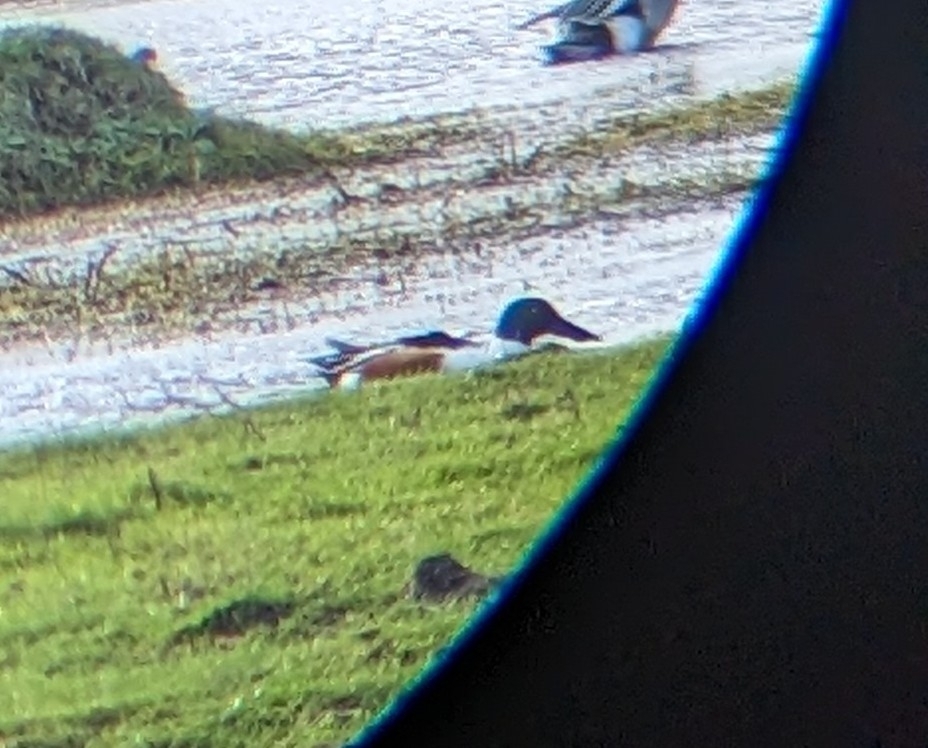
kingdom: Animalia
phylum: Chordata
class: Aves
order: Anseriformes
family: Anatidae
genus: Spatula
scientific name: Spatula clypeata
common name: Northern shoveler
